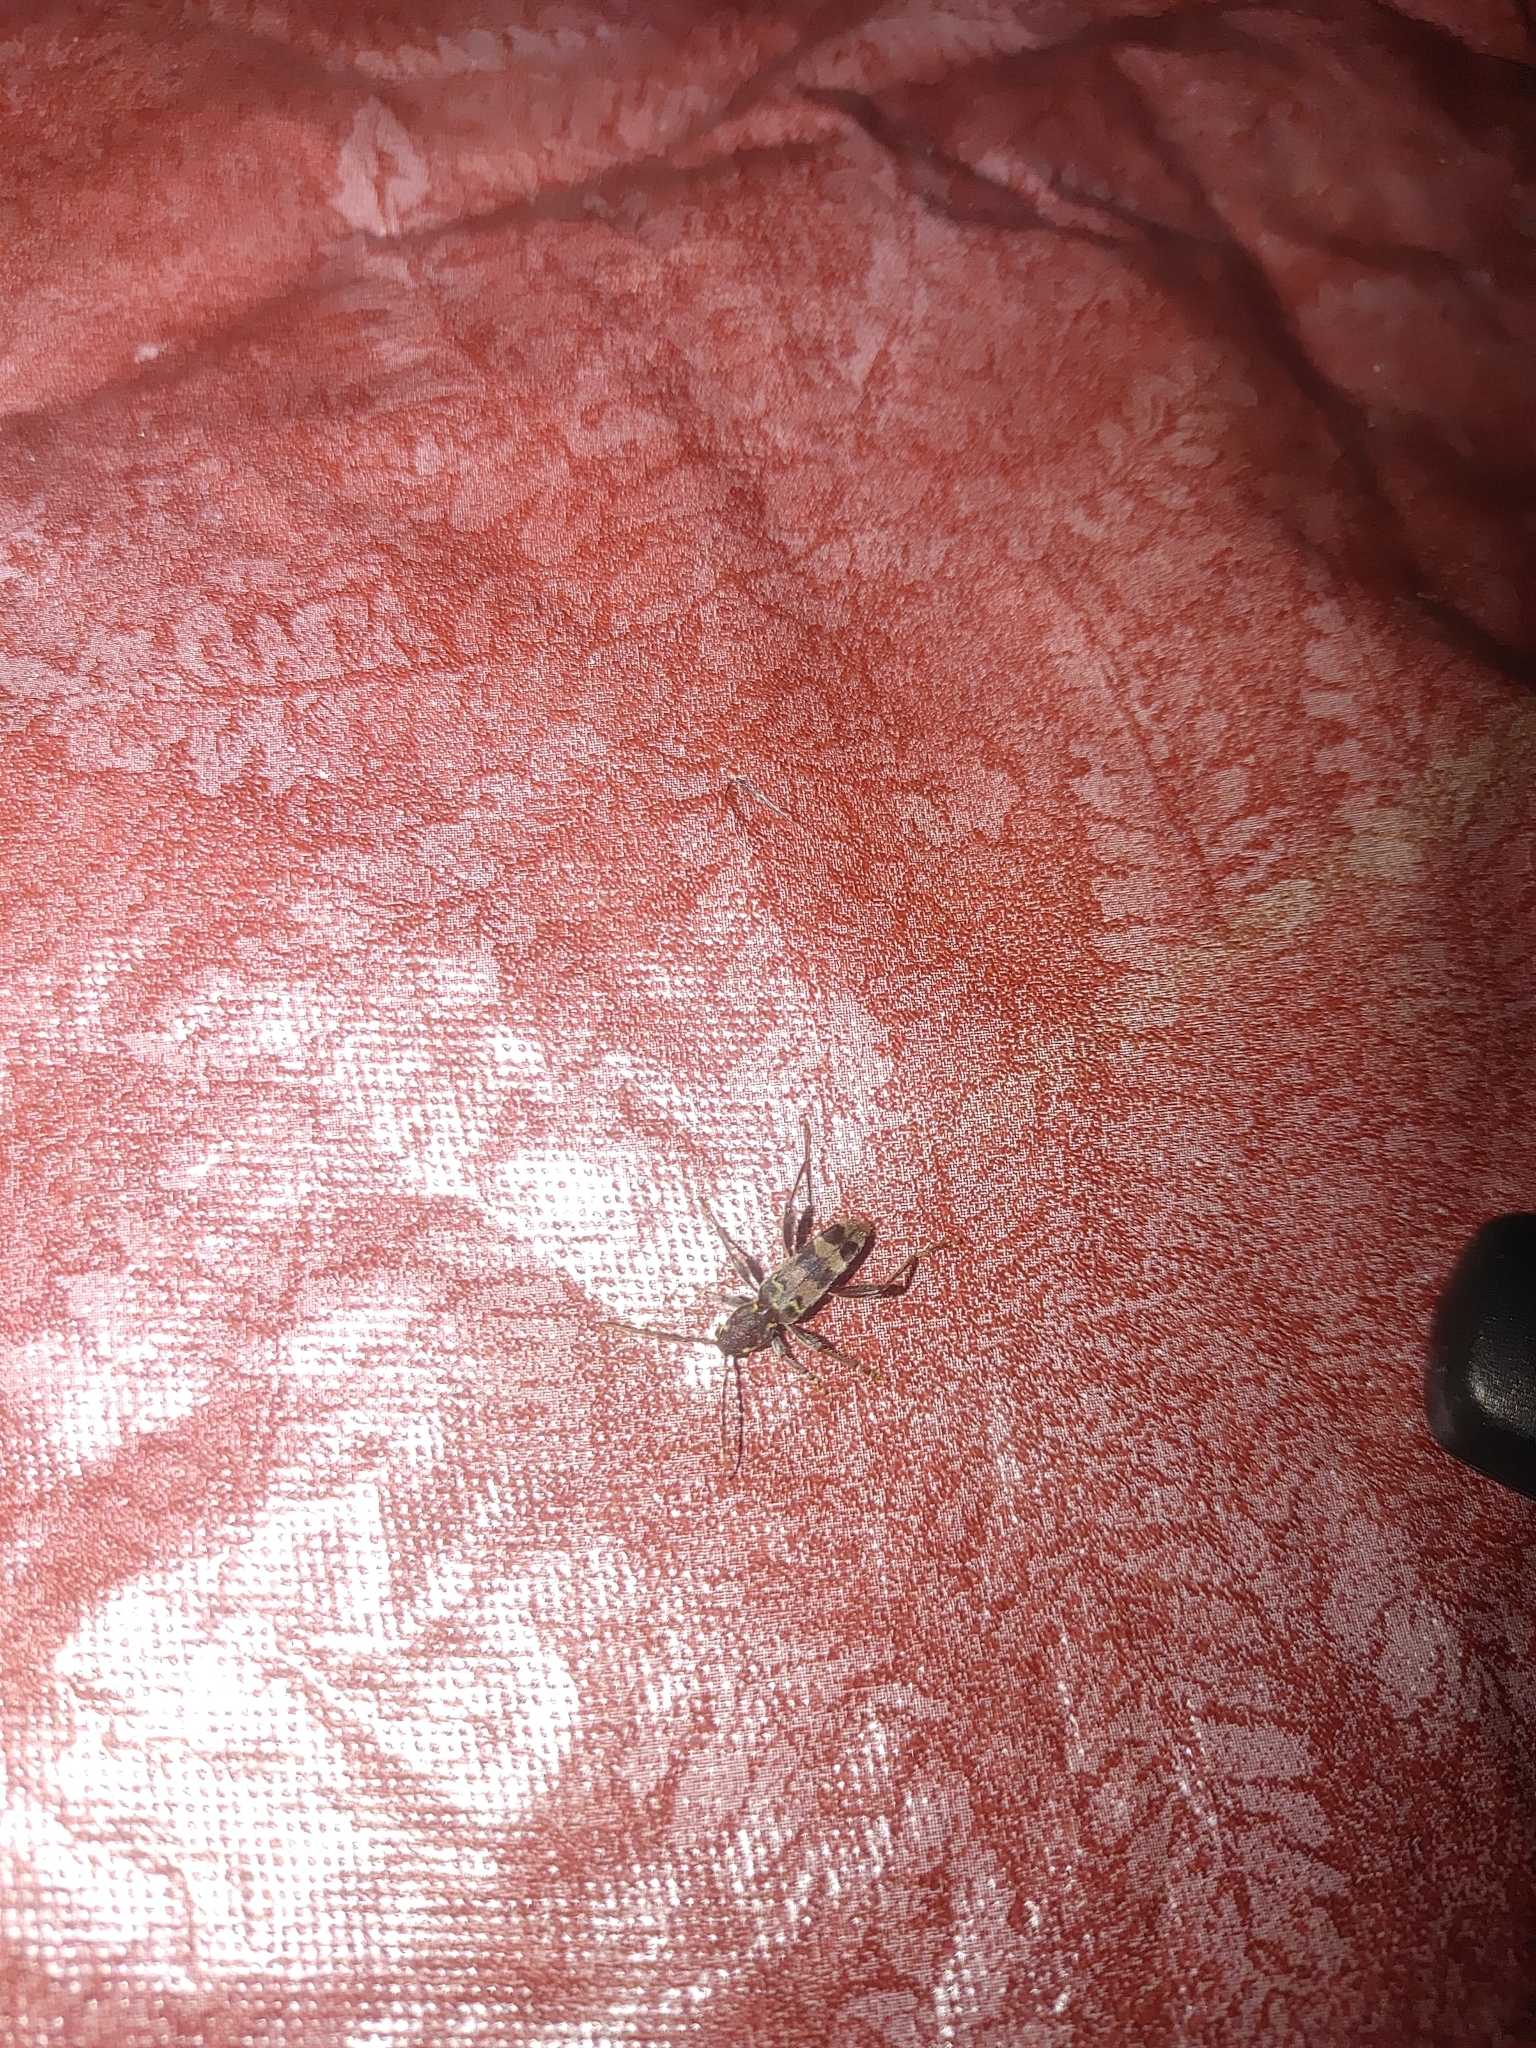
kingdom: Animalia
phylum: Arthropoda
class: Insecta
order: Coleoptera
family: Cerambycidae
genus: Xylotrechus
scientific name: Xylotrechus colonus
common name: Long-horned beetle
